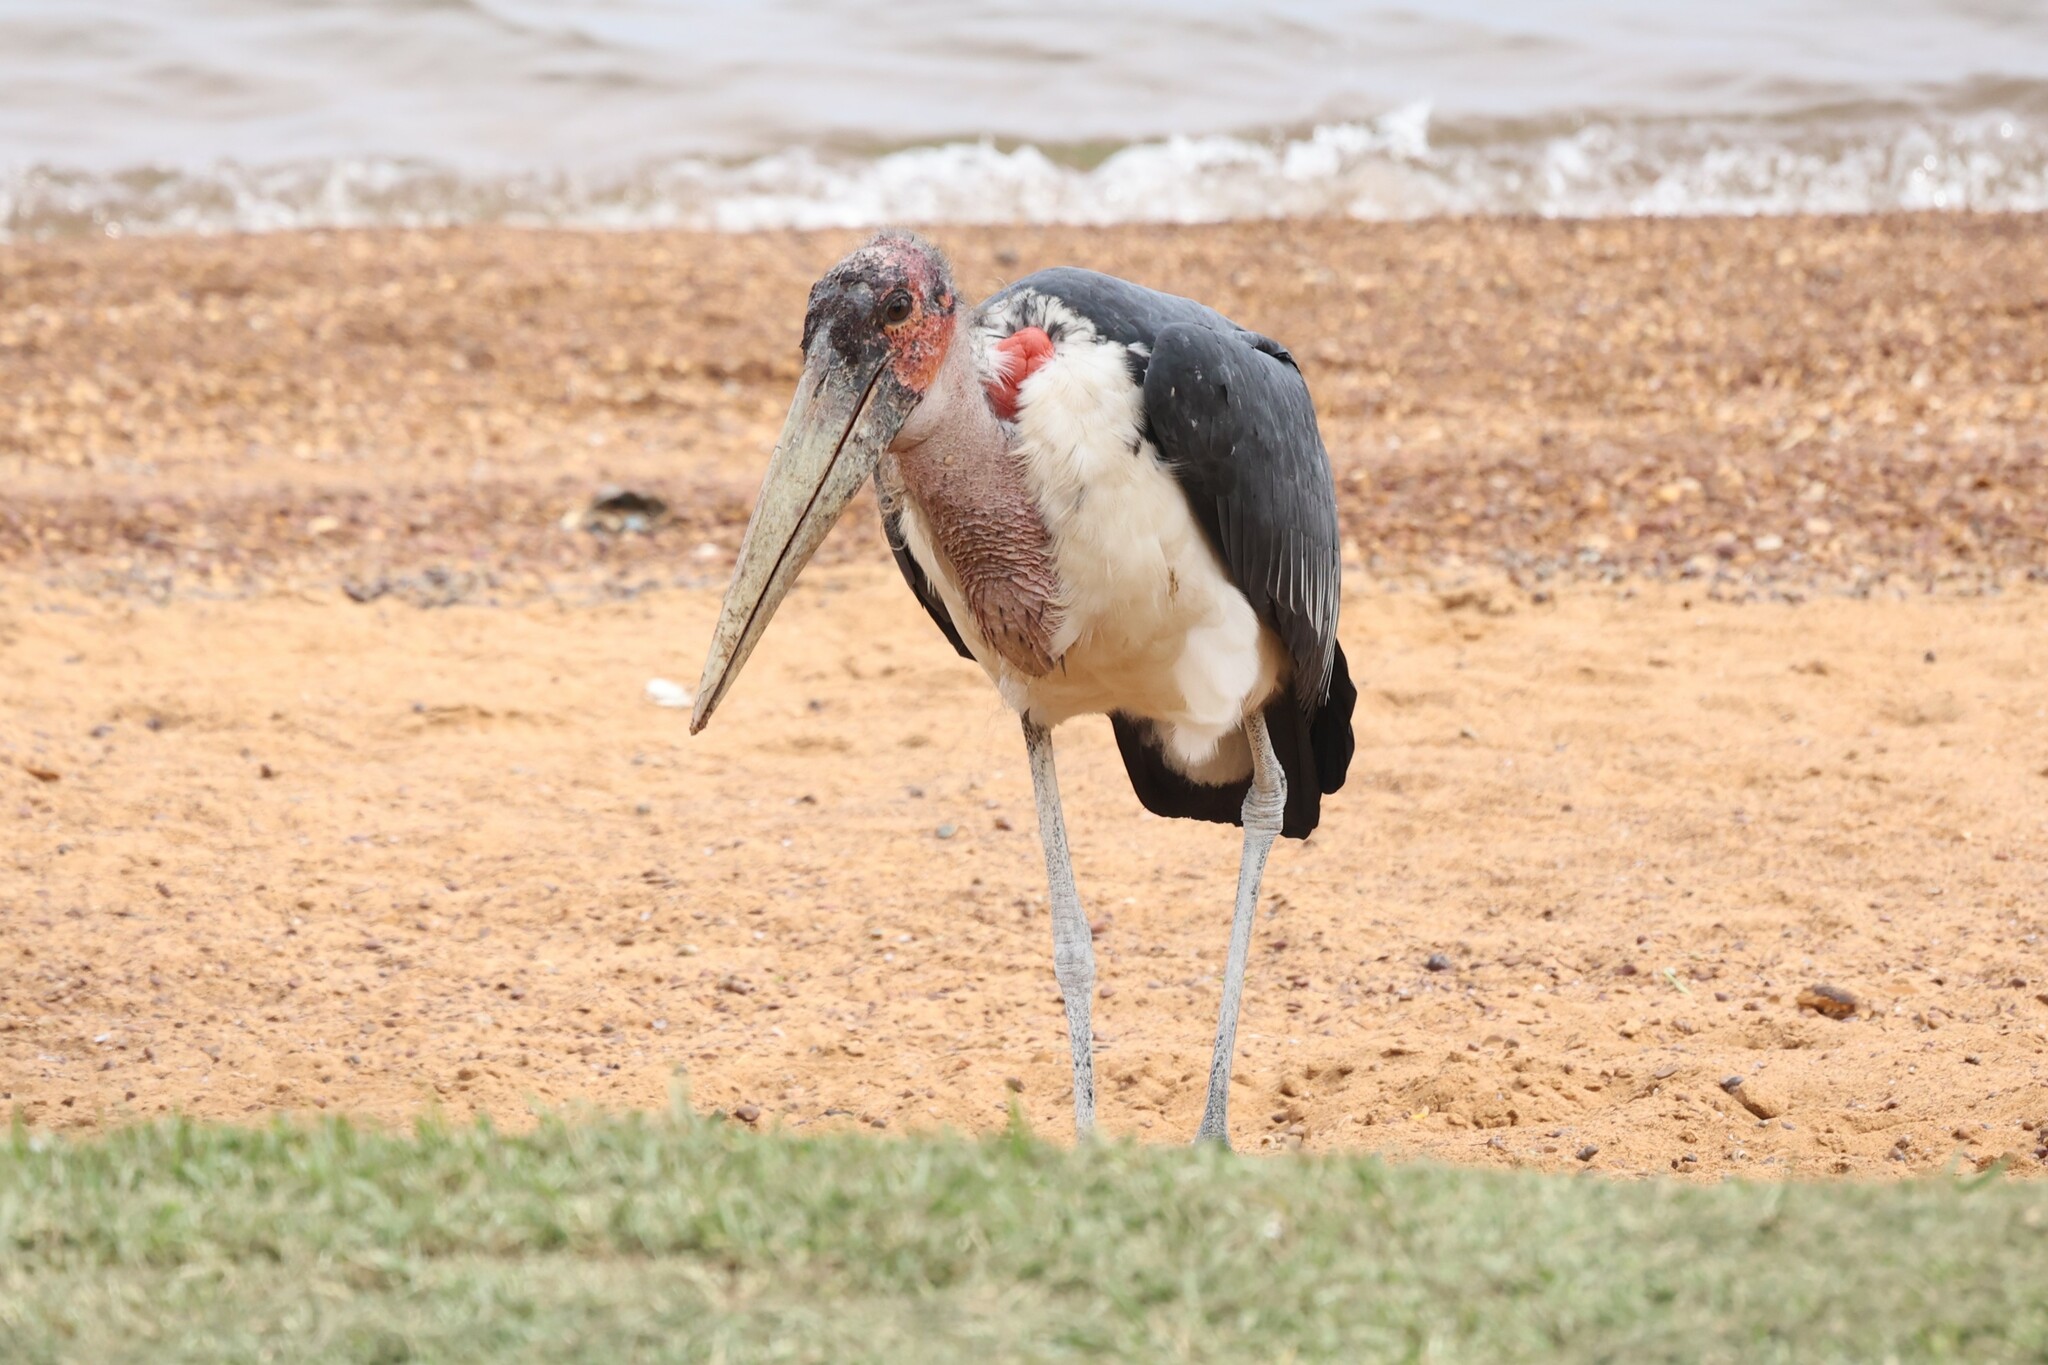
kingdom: Animalia
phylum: Chordata
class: Aves
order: Ciconiiformes
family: Ciconiidae
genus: Leptoptilos
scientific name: Leptoptilos crumenifer
